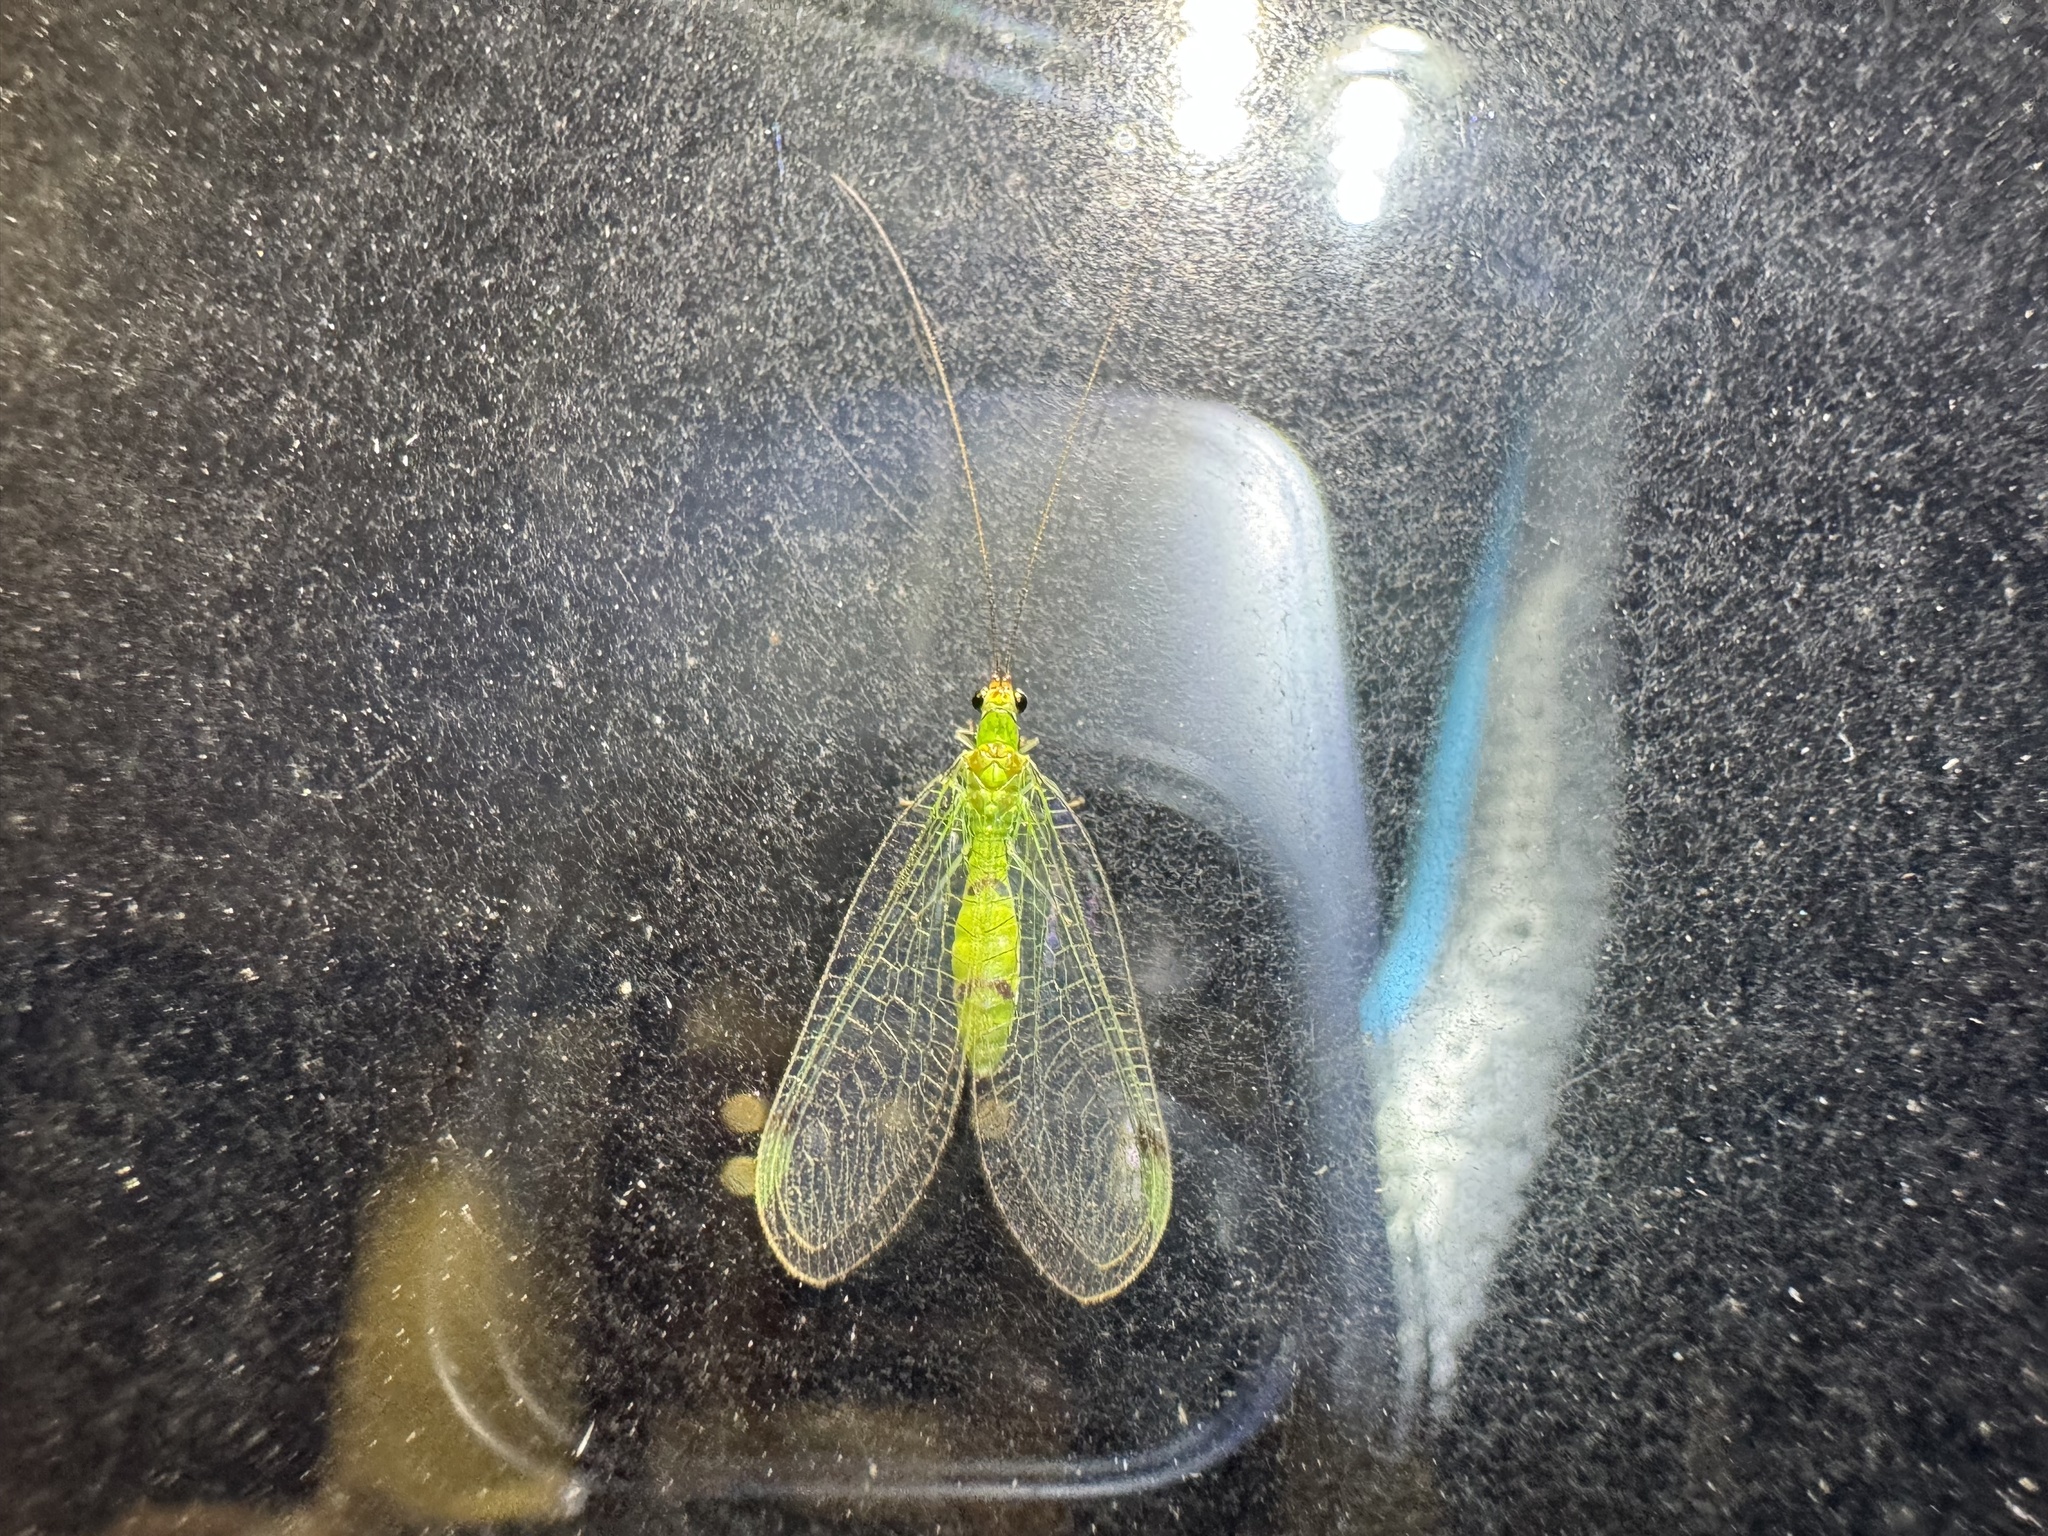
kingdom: Animalia
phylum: Arthropoda
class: Insecta
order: Neuroptera
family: Chrysopidae
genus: Leucochrysa
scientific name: Leucochrysa explorata
